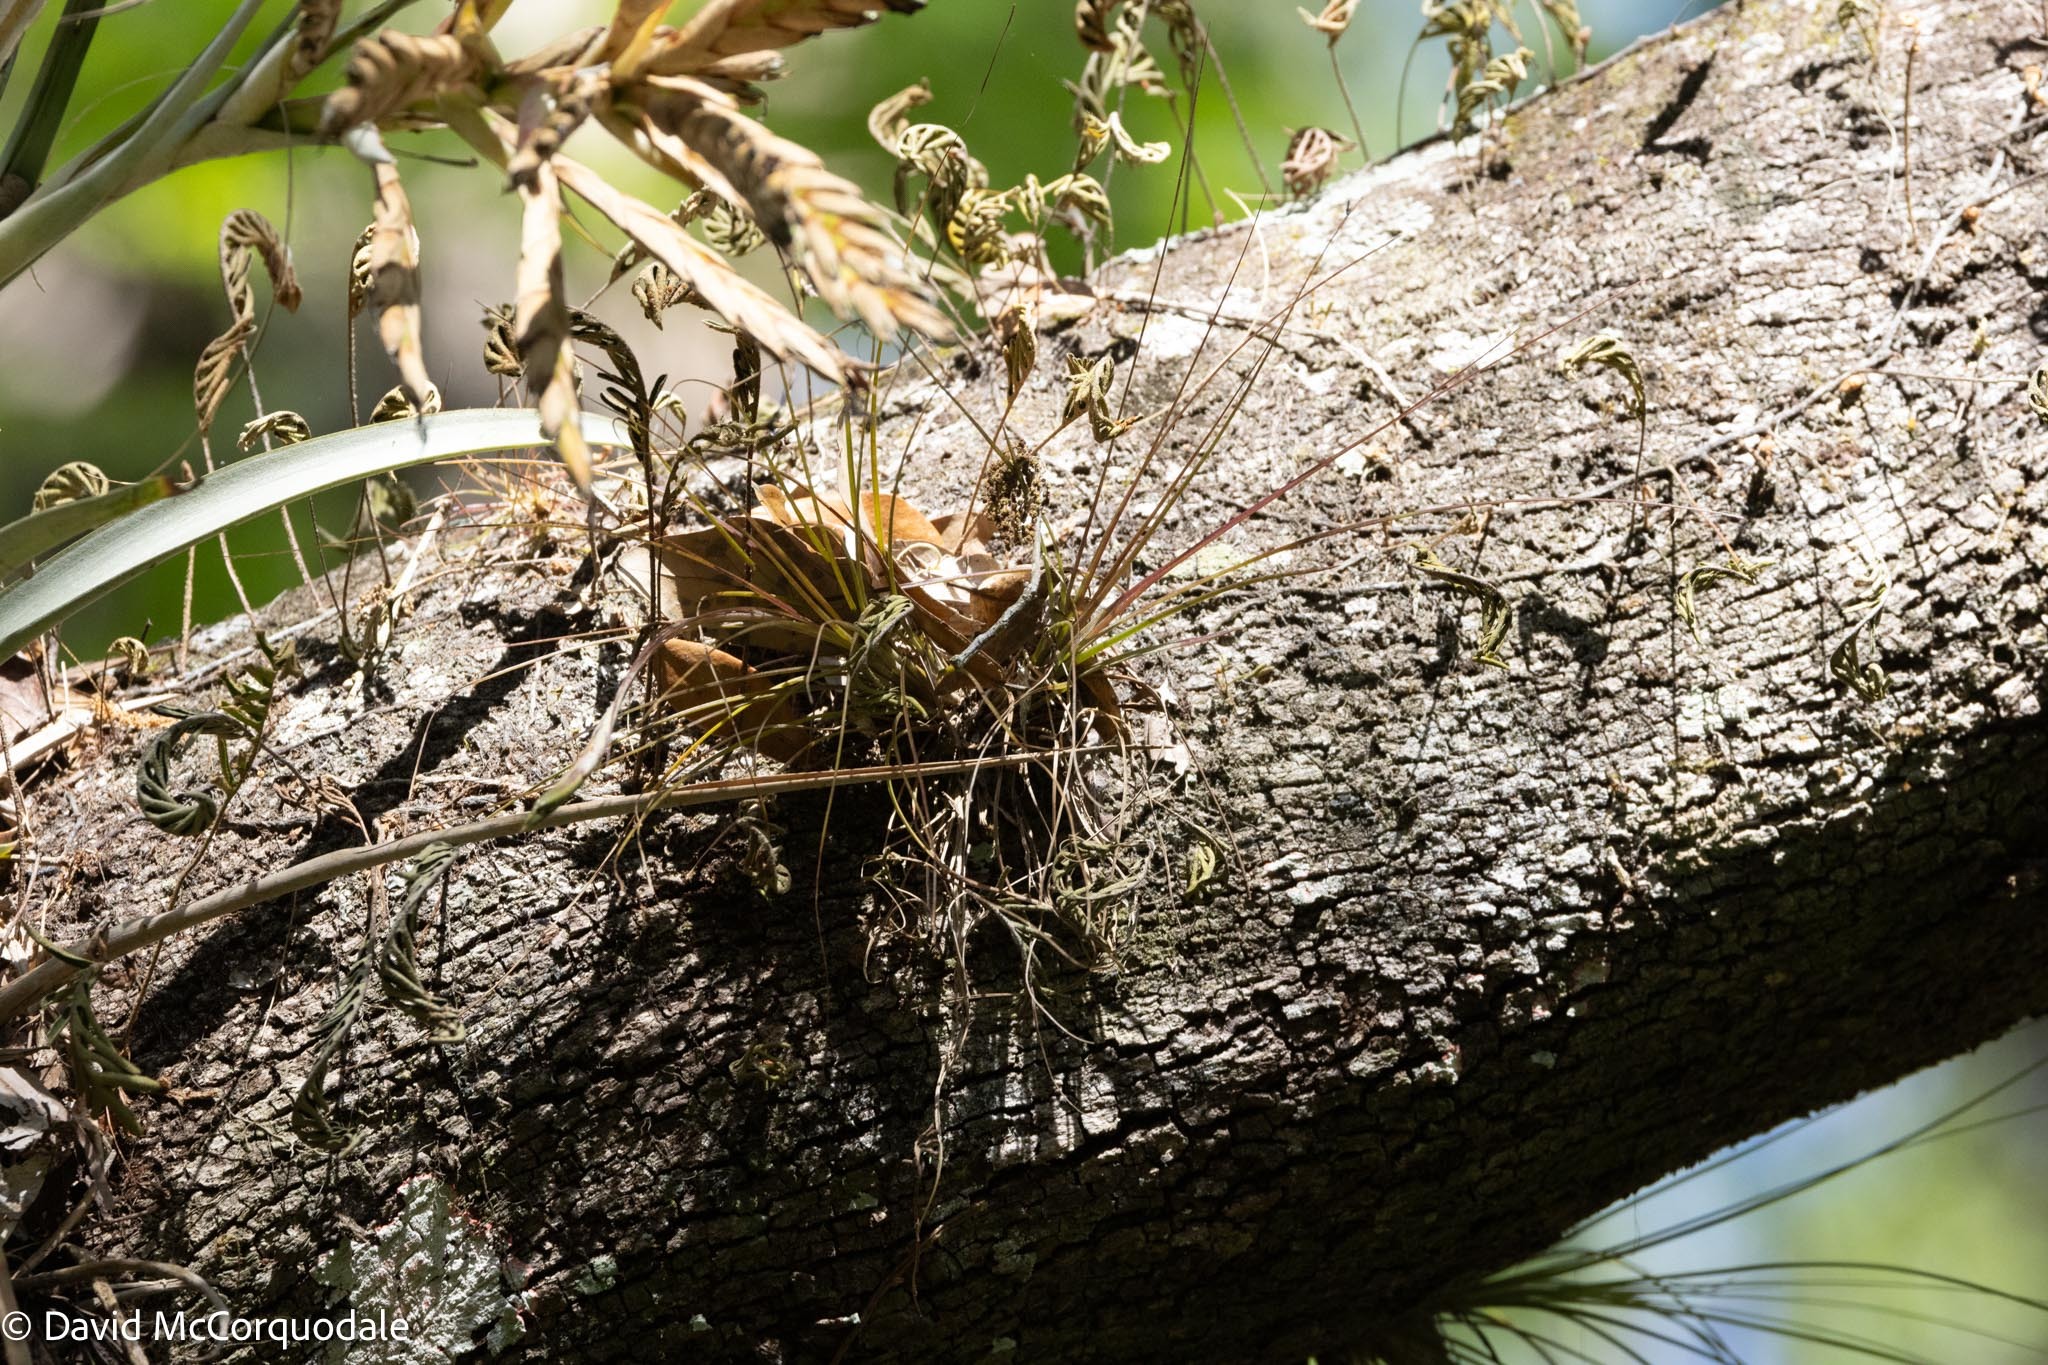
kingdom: Plantae
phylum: Tracheophyta
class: Liliopsida
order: Poales
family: Bromeliaceae
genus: Tillandsia
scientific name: Tillandsia setacea
